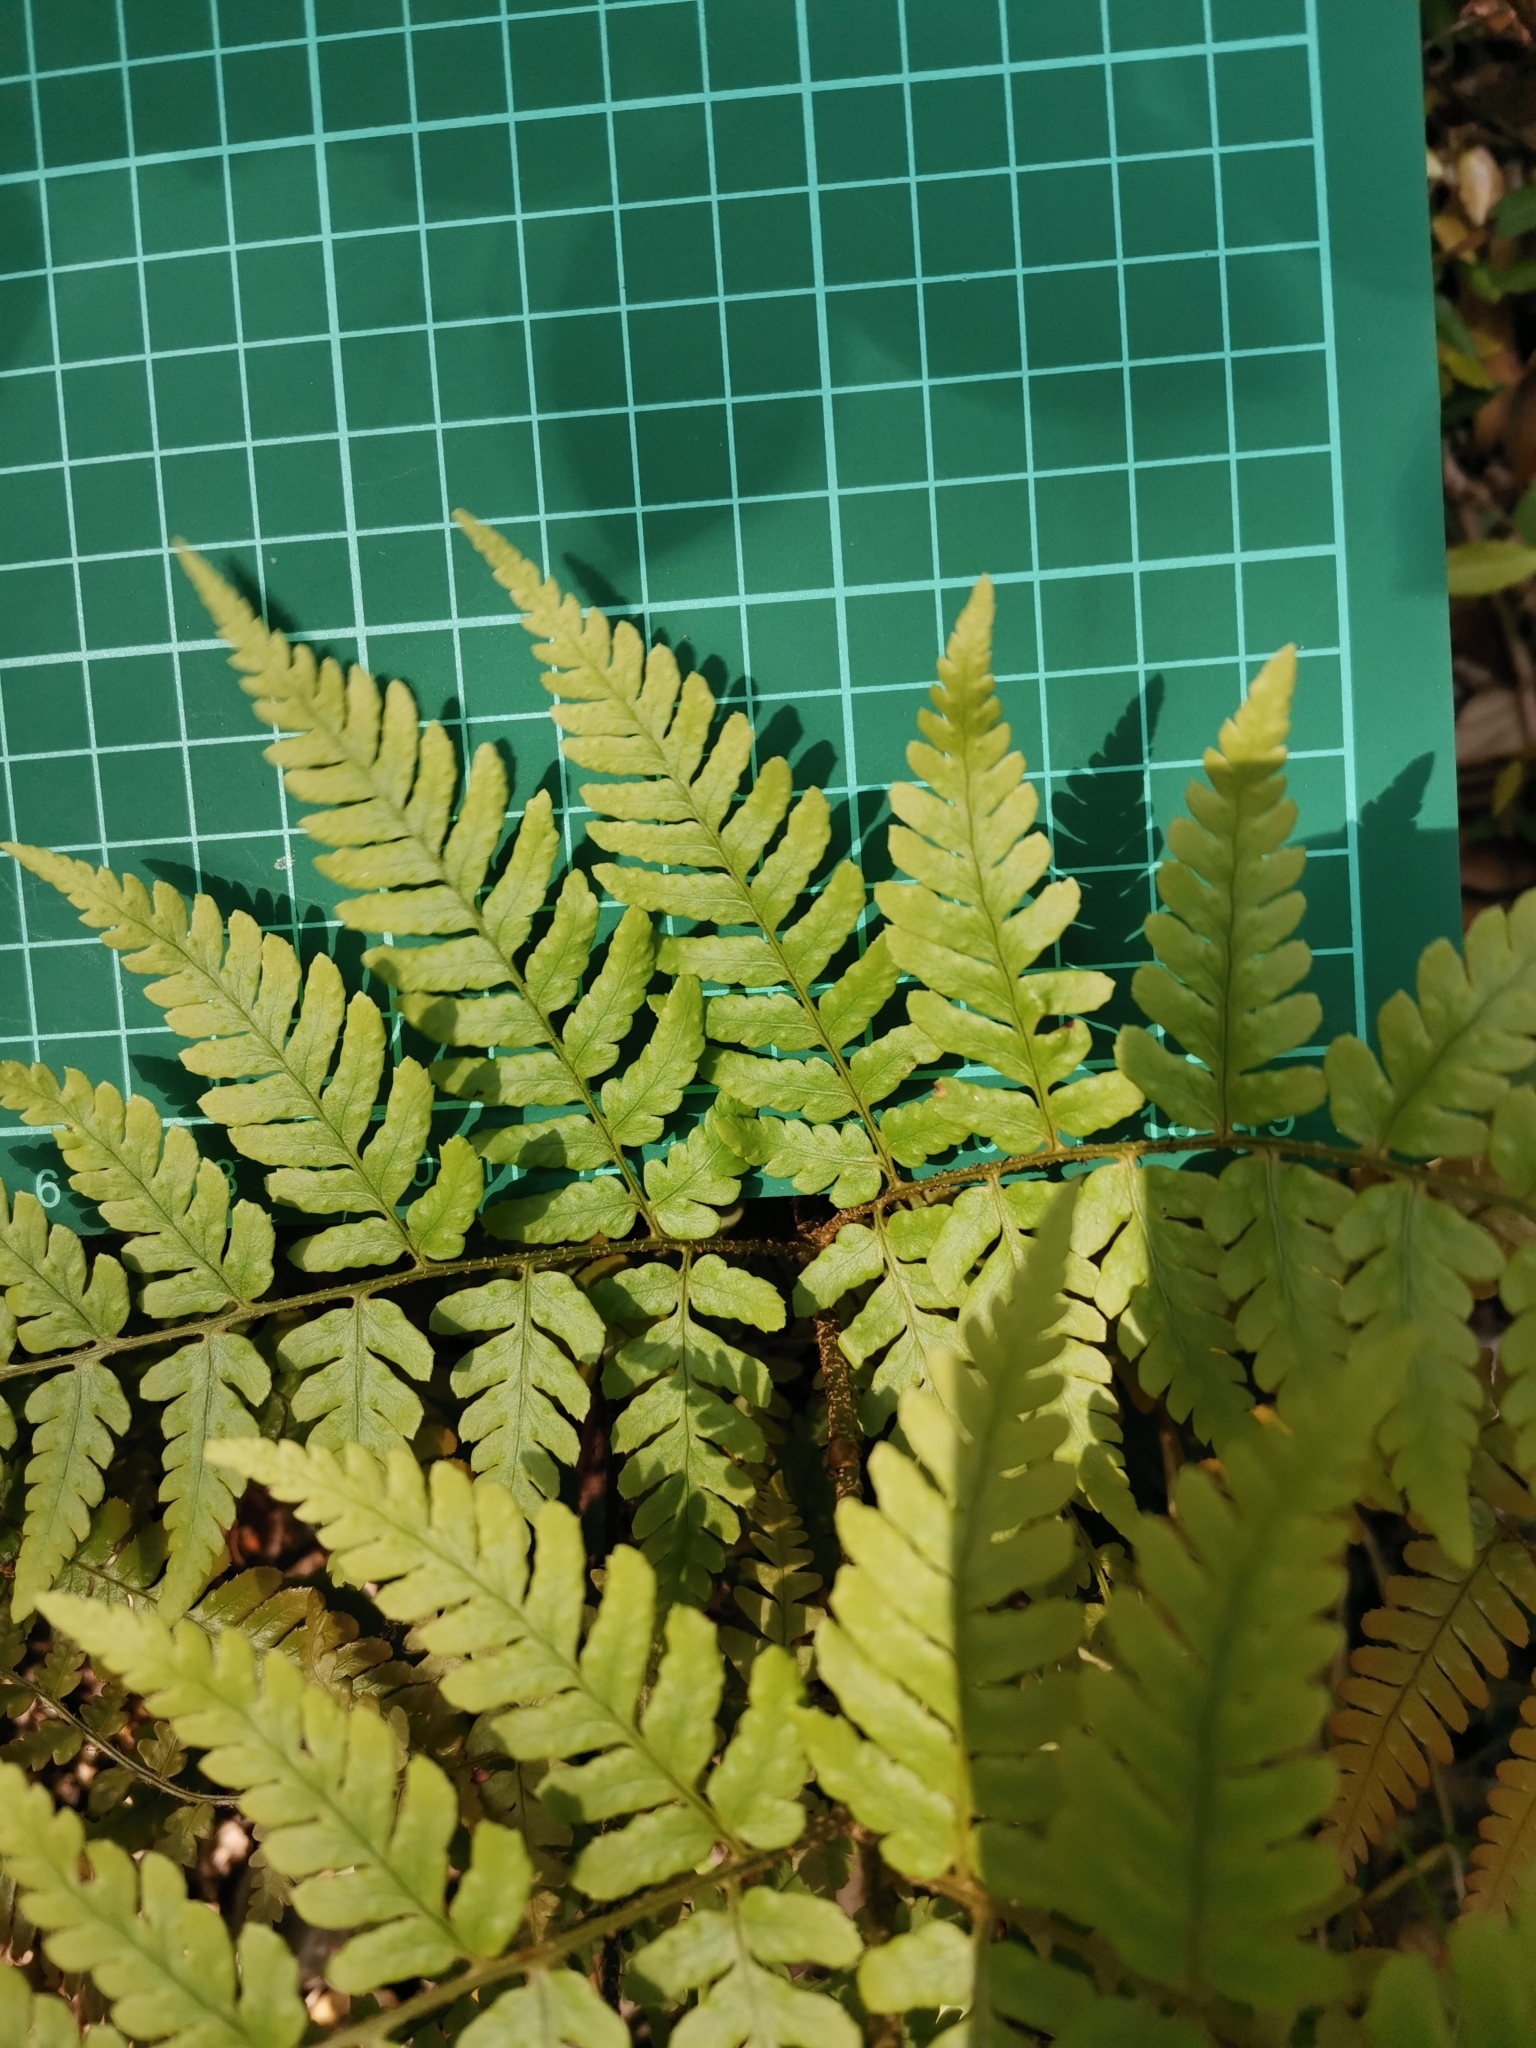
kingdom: Plantae
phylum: Tracheophyta
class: Polypodiopsida
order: Polypodiales
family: Dryopteridaceae
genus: Dryopteris
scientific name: Dryopteris immixta
